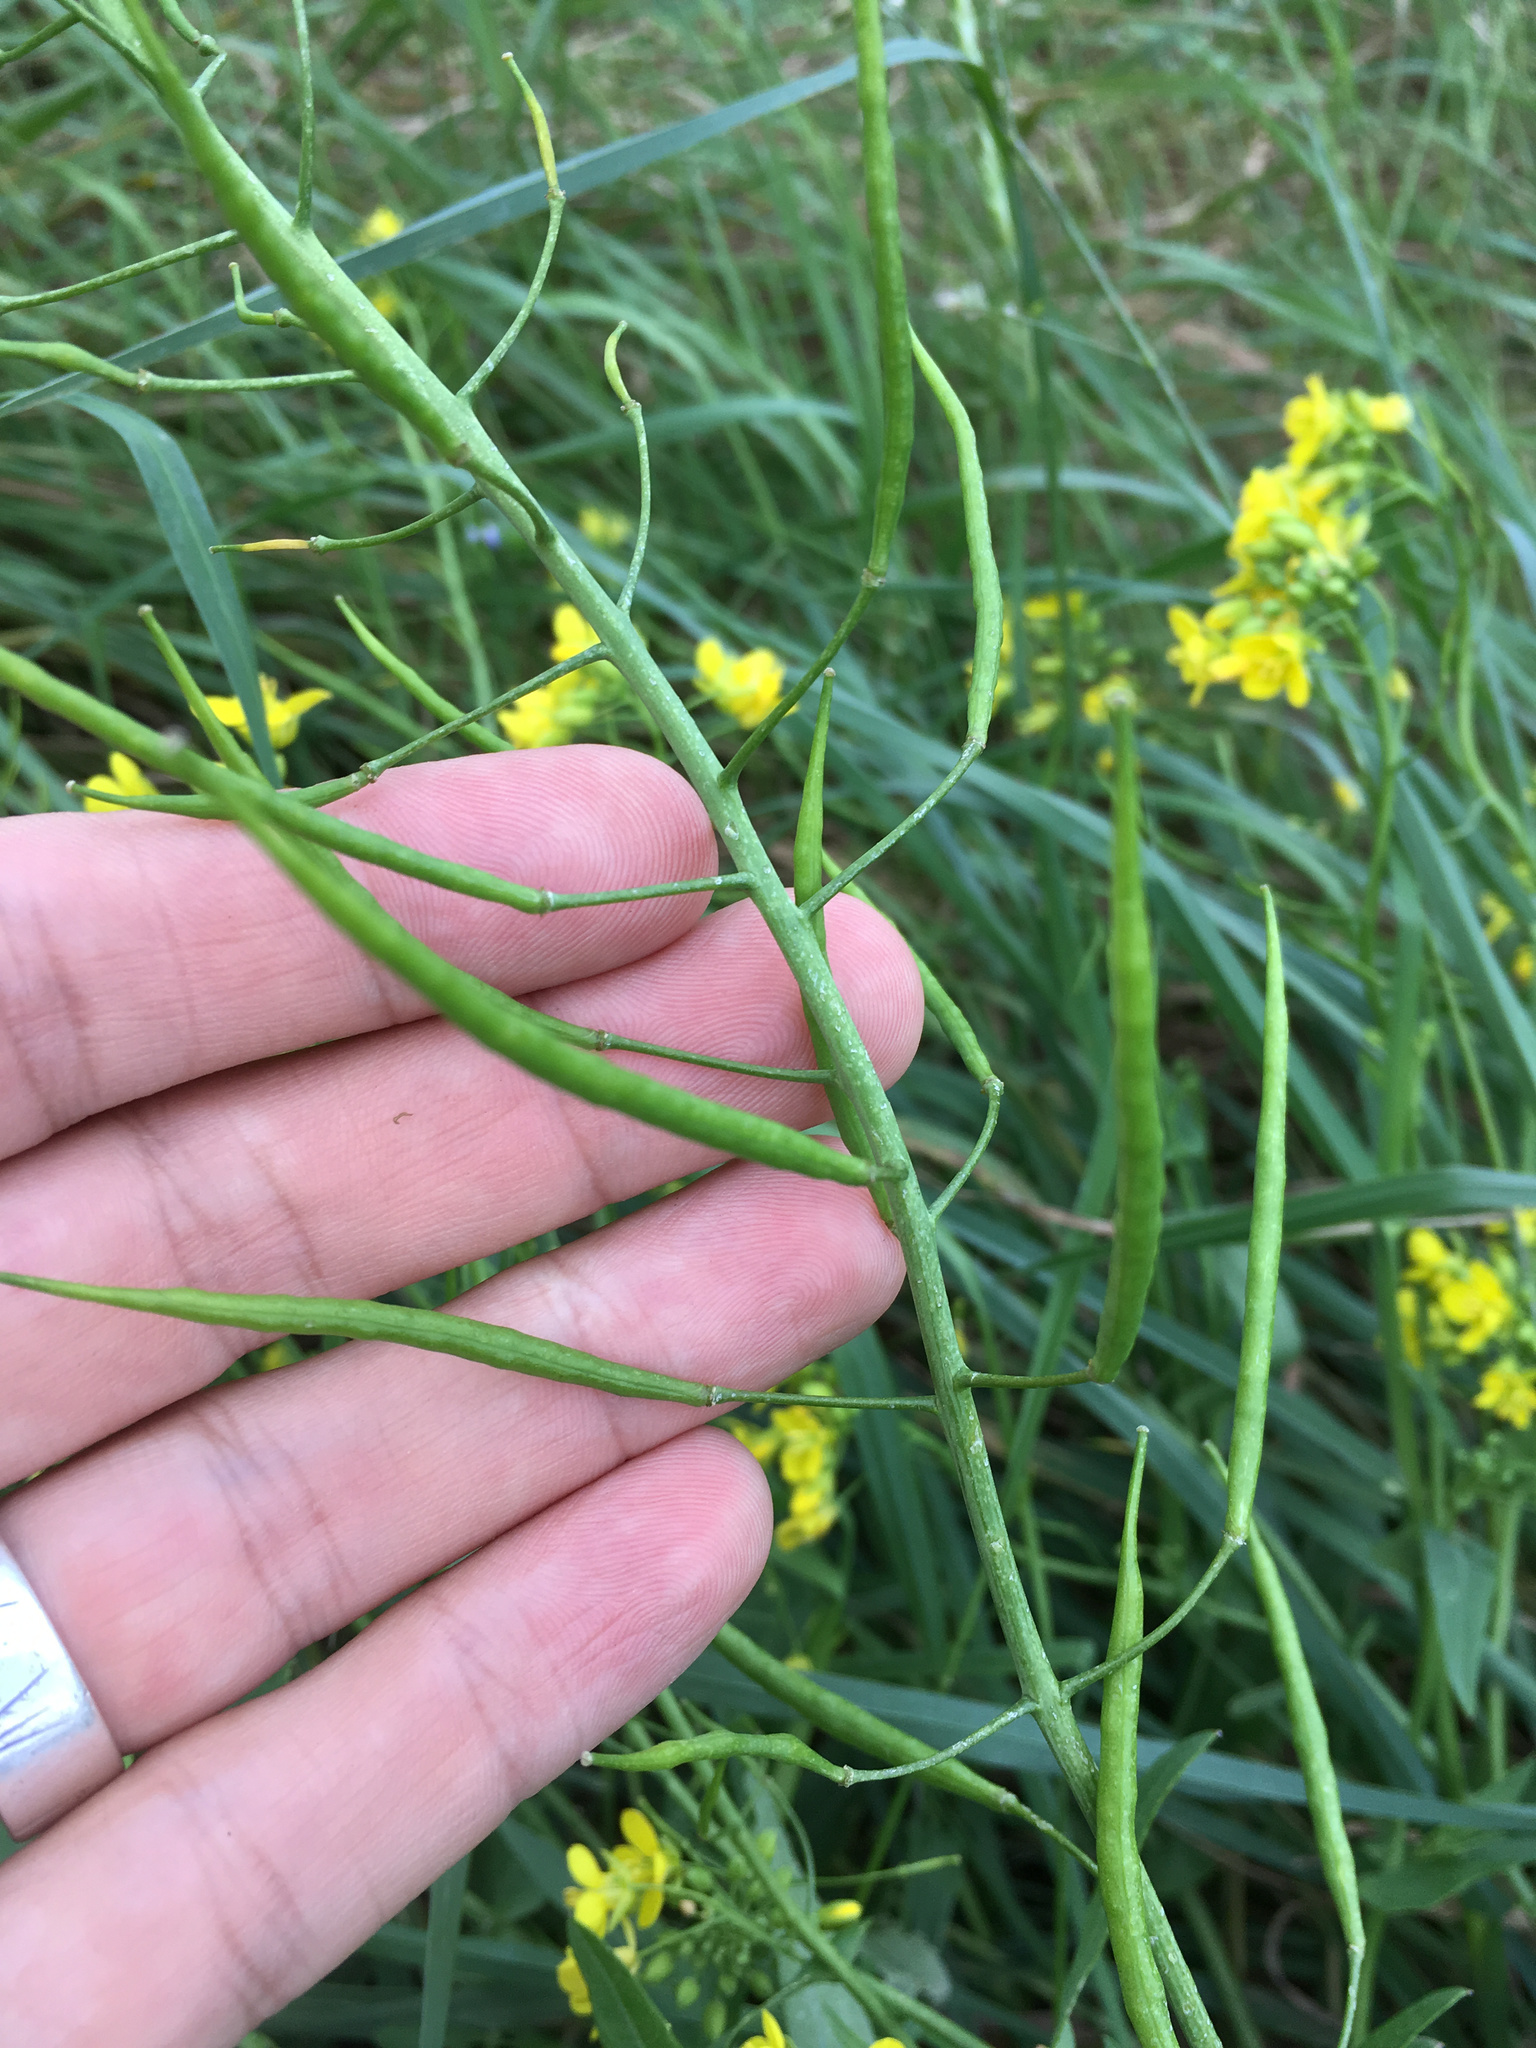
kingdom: Plantae
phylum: Tracheophyta
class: Magnoliopsida
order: Brassicales
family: Brassicaceae
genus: Brassica
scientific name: Brassica rapa
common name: Field mustard
